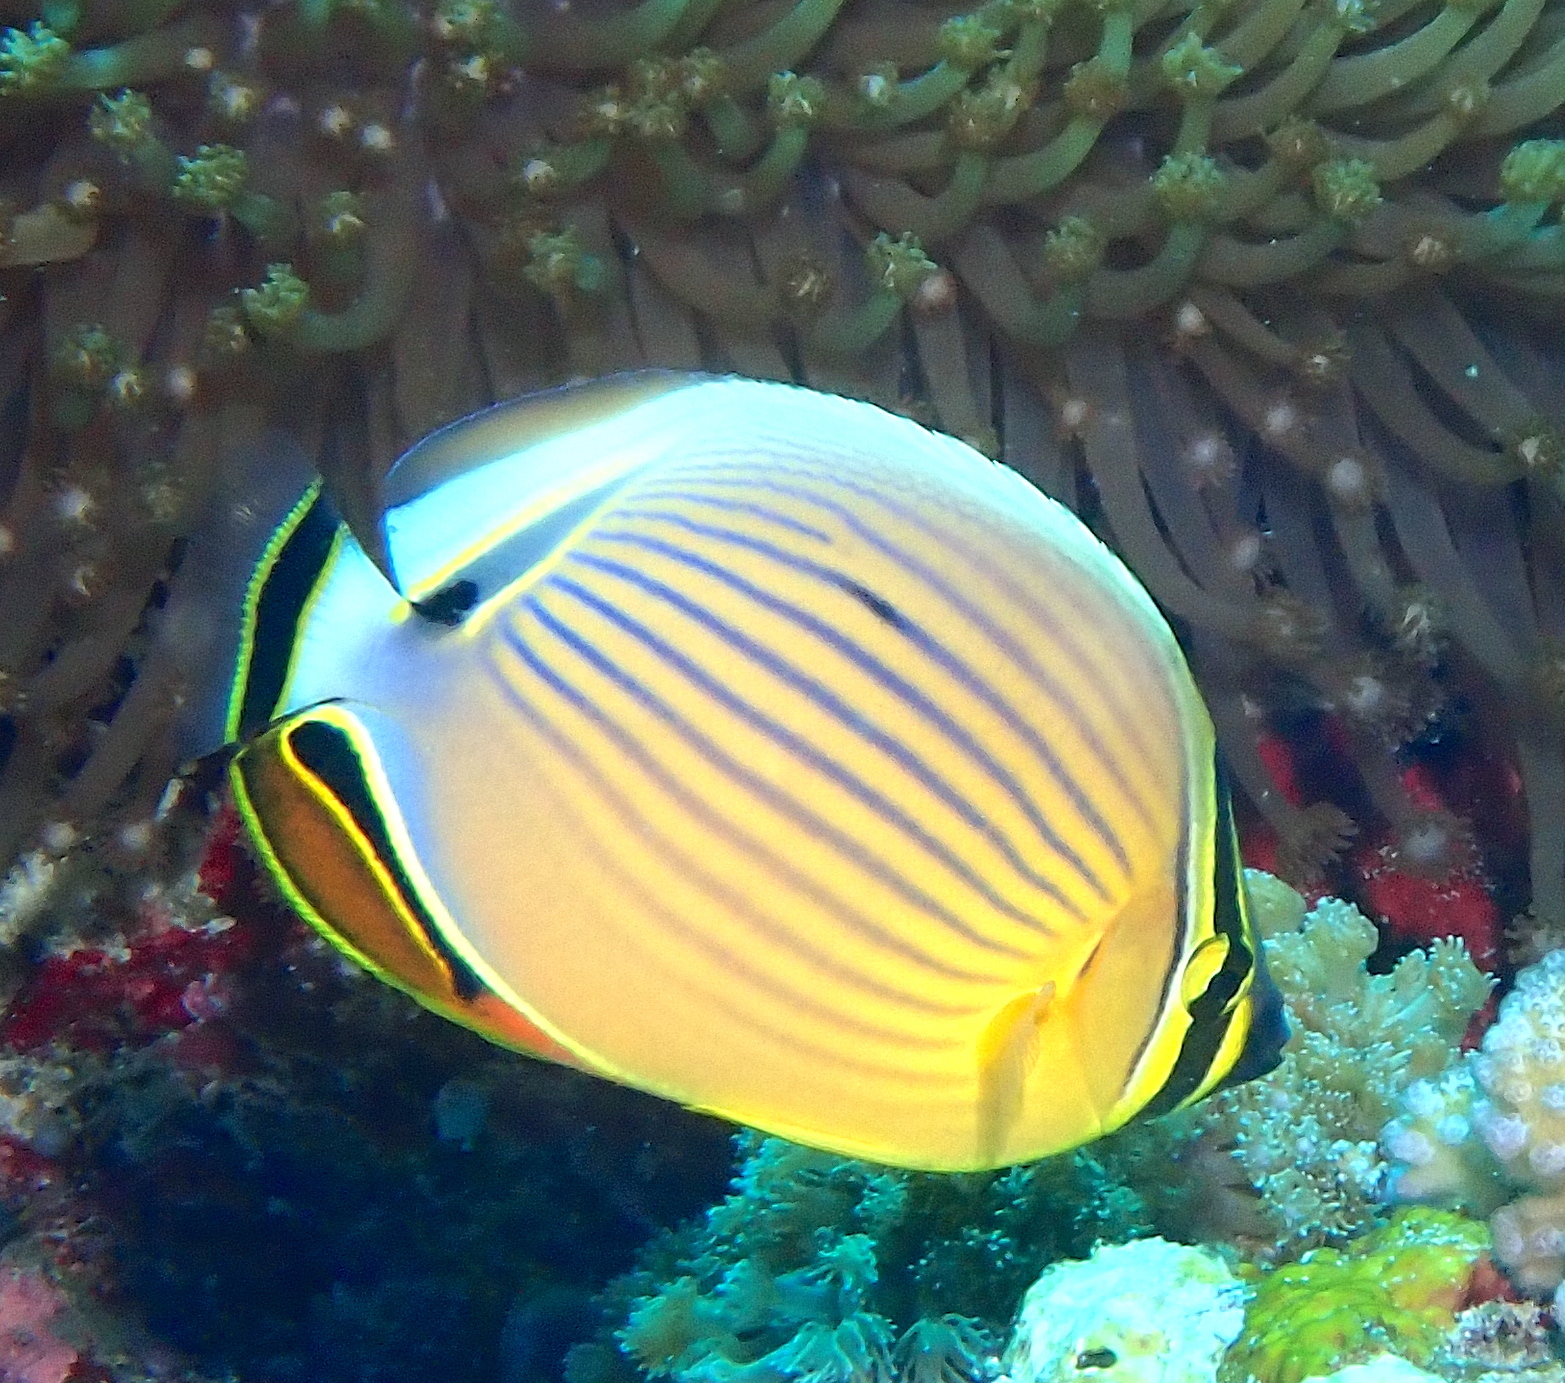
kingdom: Animalia
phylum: Chordata
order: Perciformes
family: Chaetodontidae
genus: Chaetodon
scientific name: Chaetodon lunulatus
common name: Redfin butterflyfish
